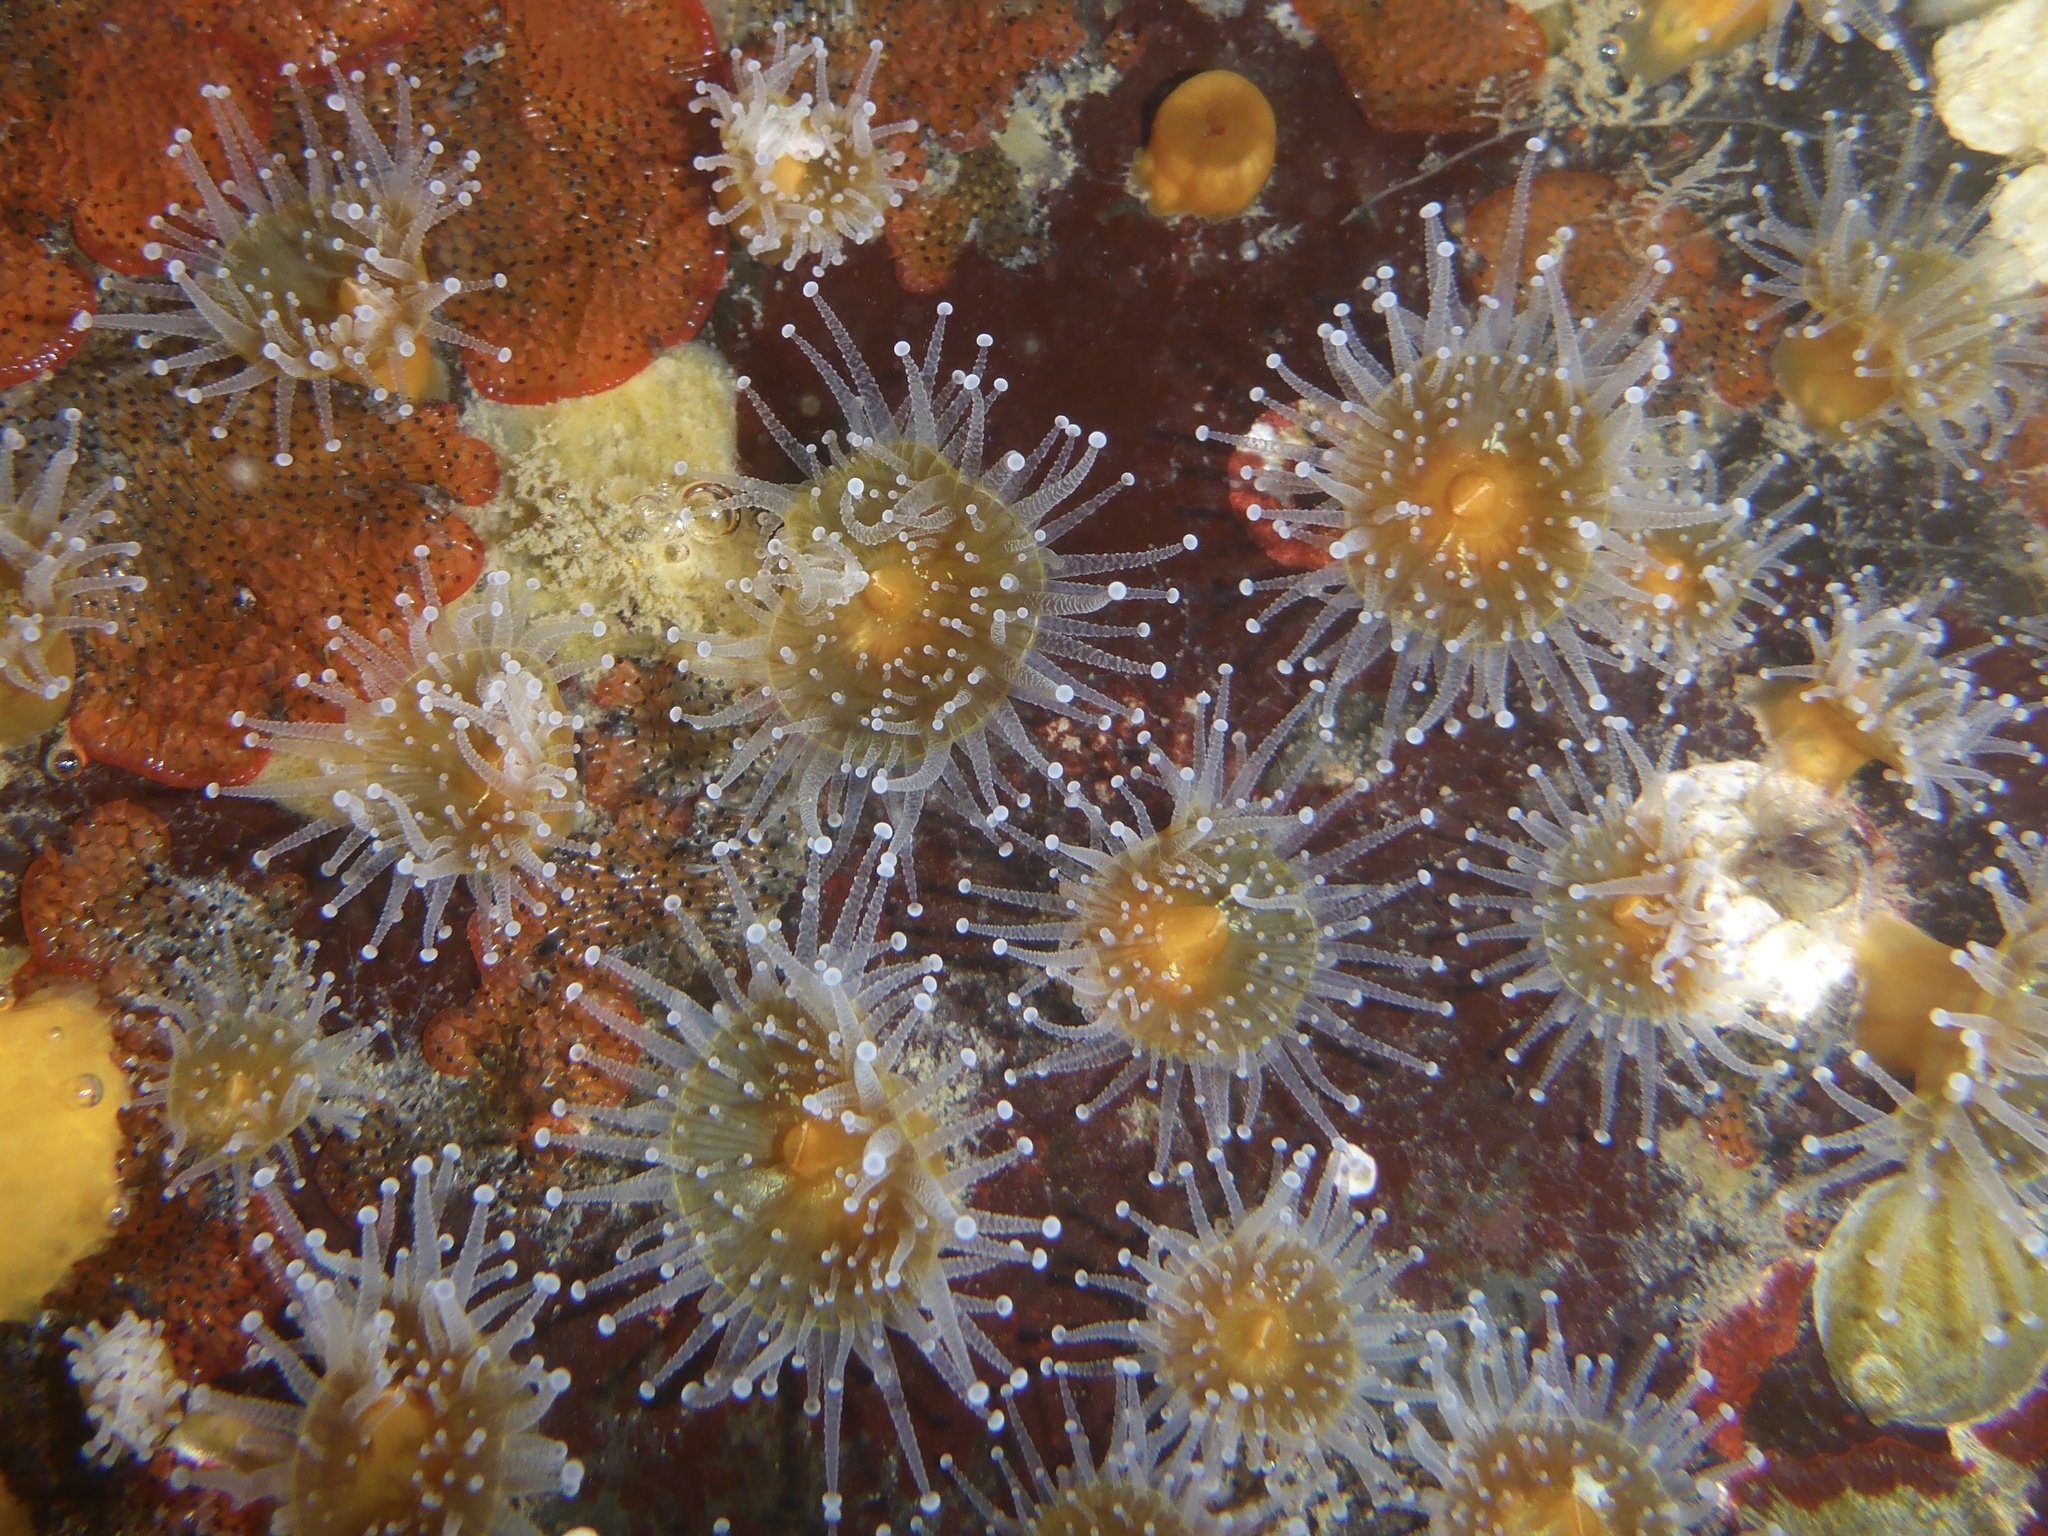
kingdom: Animalia
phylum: Cnidaria
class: Anthozoa
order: Corallimorpharia
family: Corallimorphidae
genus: Corynactis
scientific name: Corynactis californica
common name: Strawberry corallimorpharian
